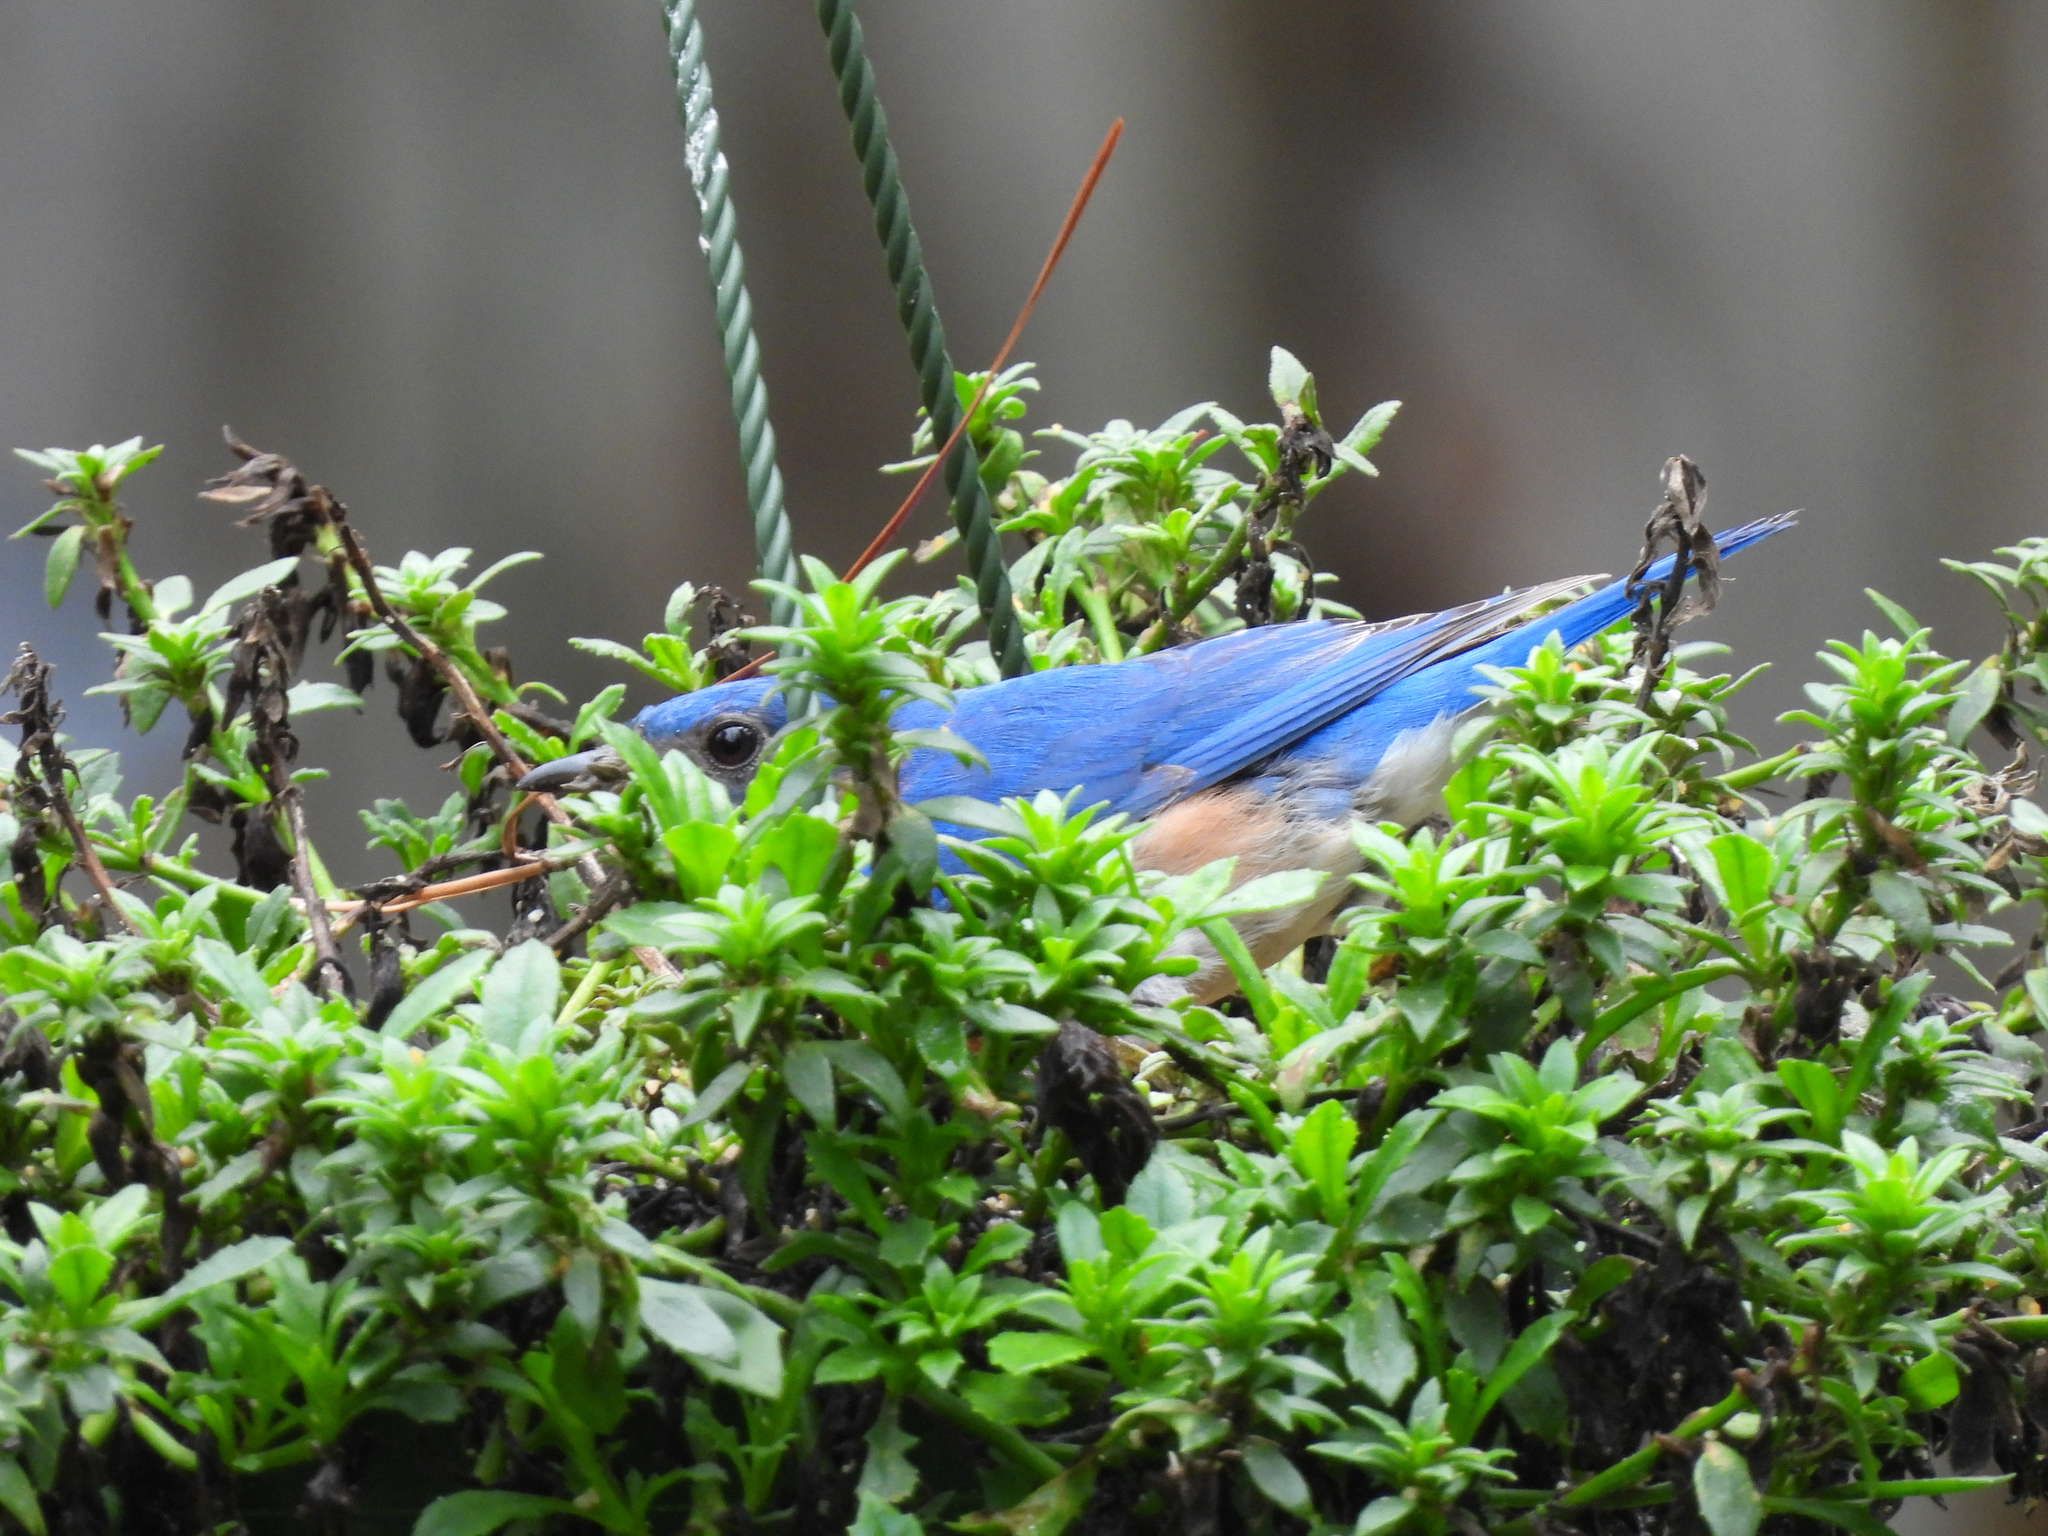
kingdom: Animalia
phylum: Chordata
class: Aves
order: Passeriformes
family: Turdidae
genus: Sialia
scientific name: Sialia sialis
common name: Eastern bluebird
